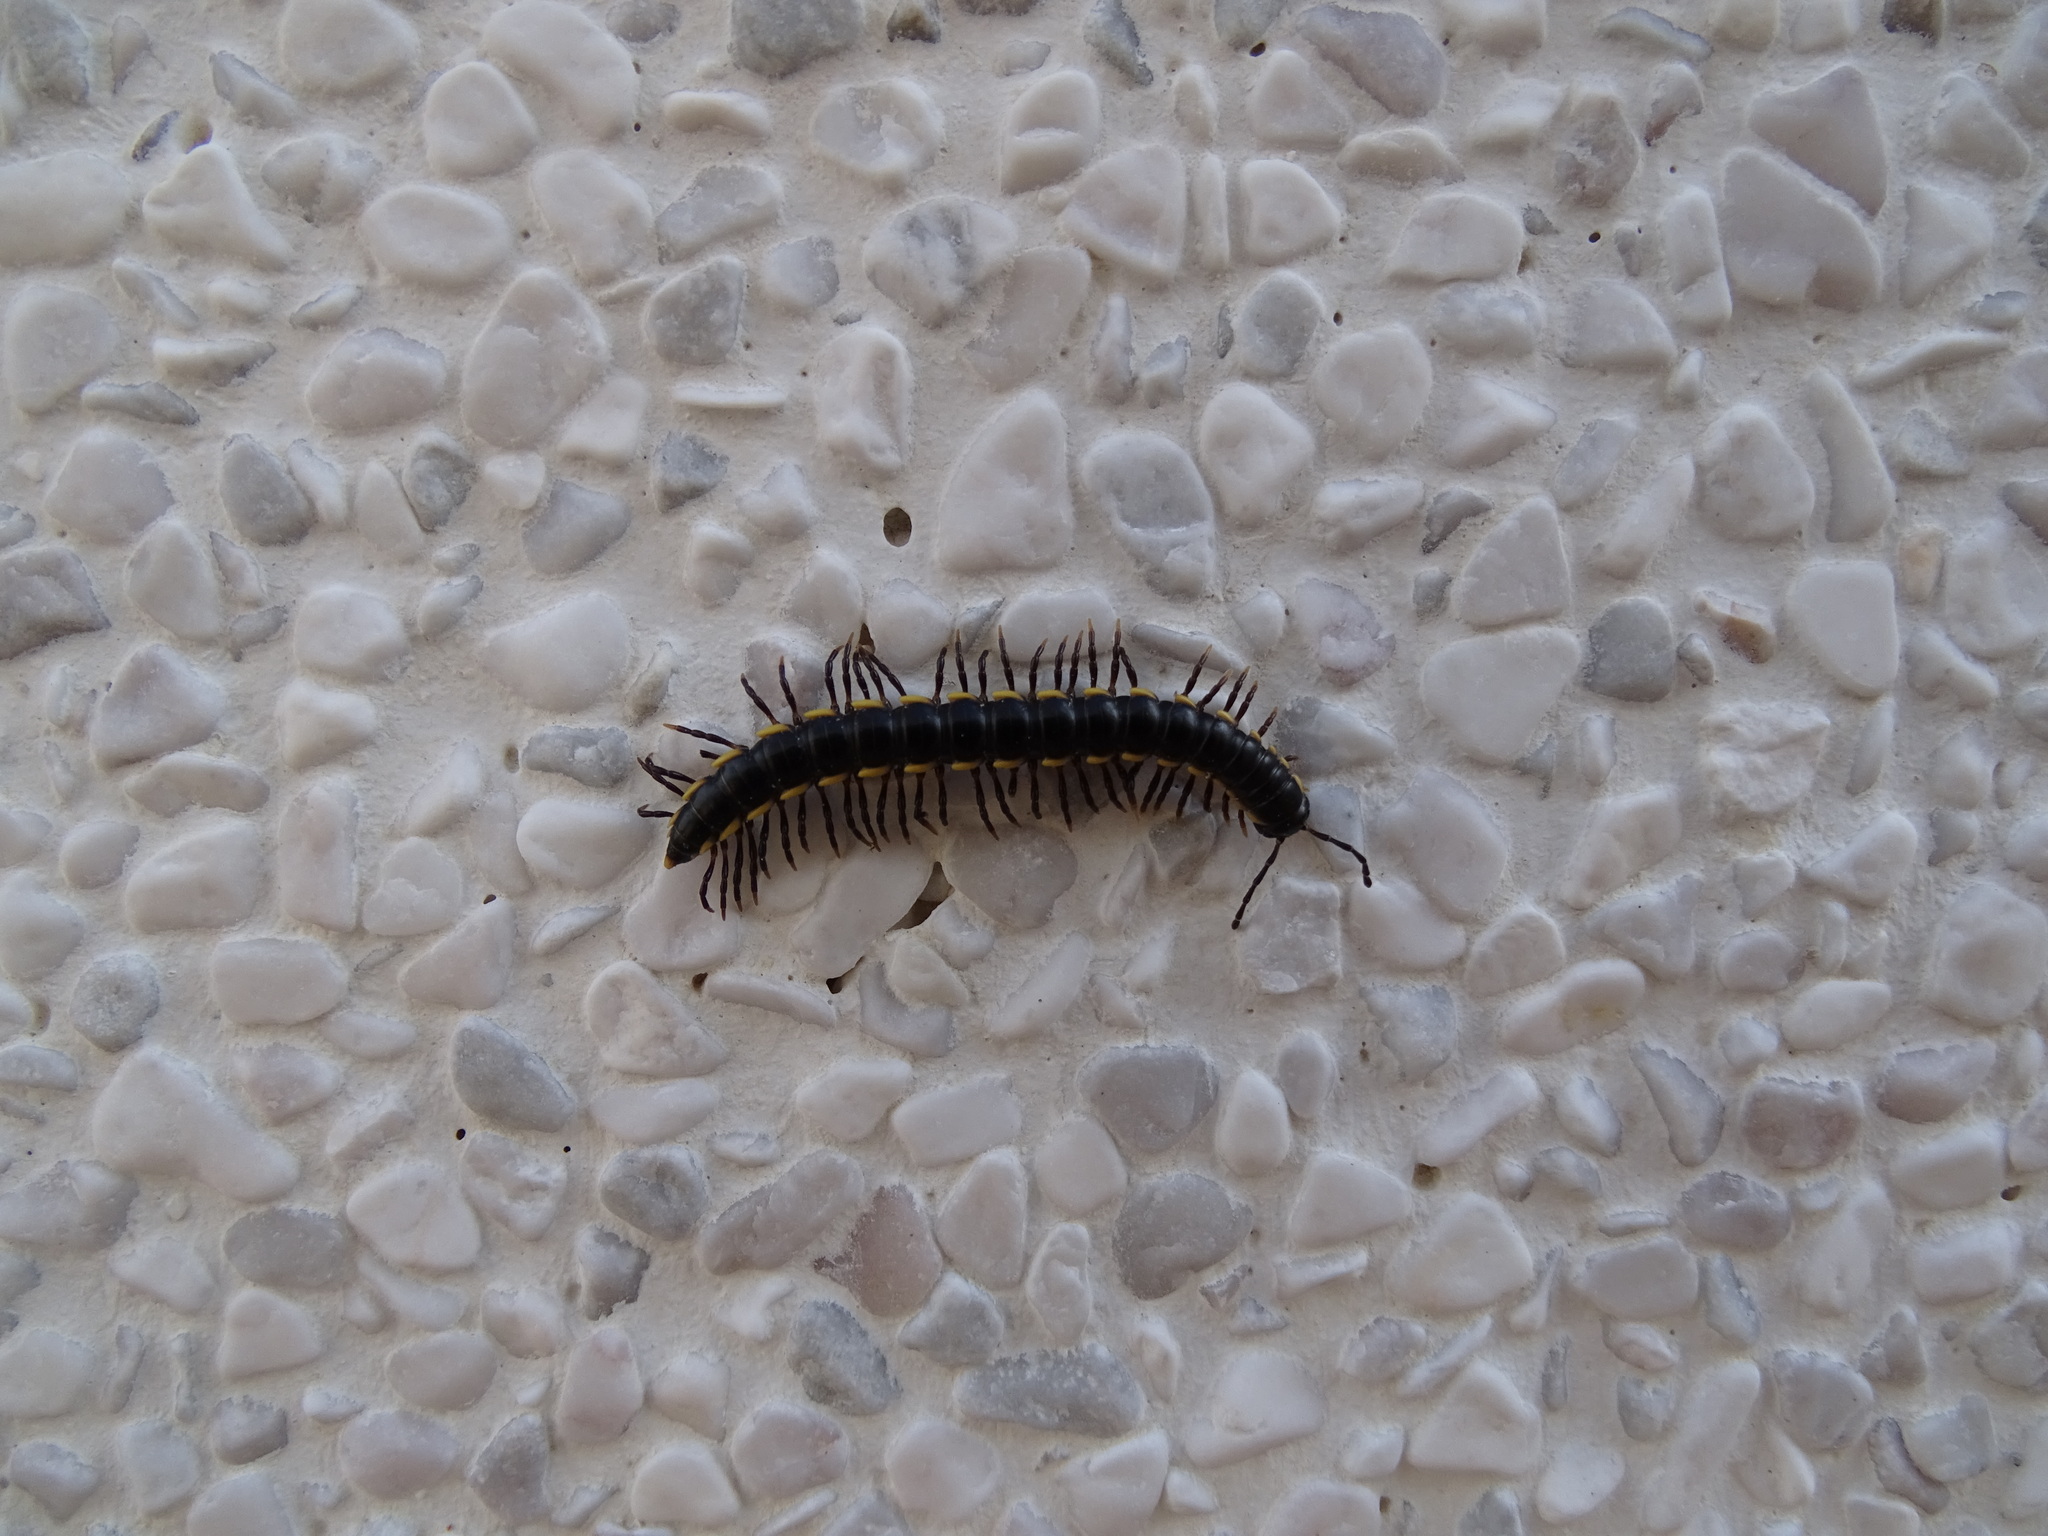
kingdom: Animalia
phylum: Arthropoda
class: Diplopoda
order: Polydesmida
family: Paradoxosomatidae
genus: Orthomorphella
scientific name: Orthomorphella pekuensis
